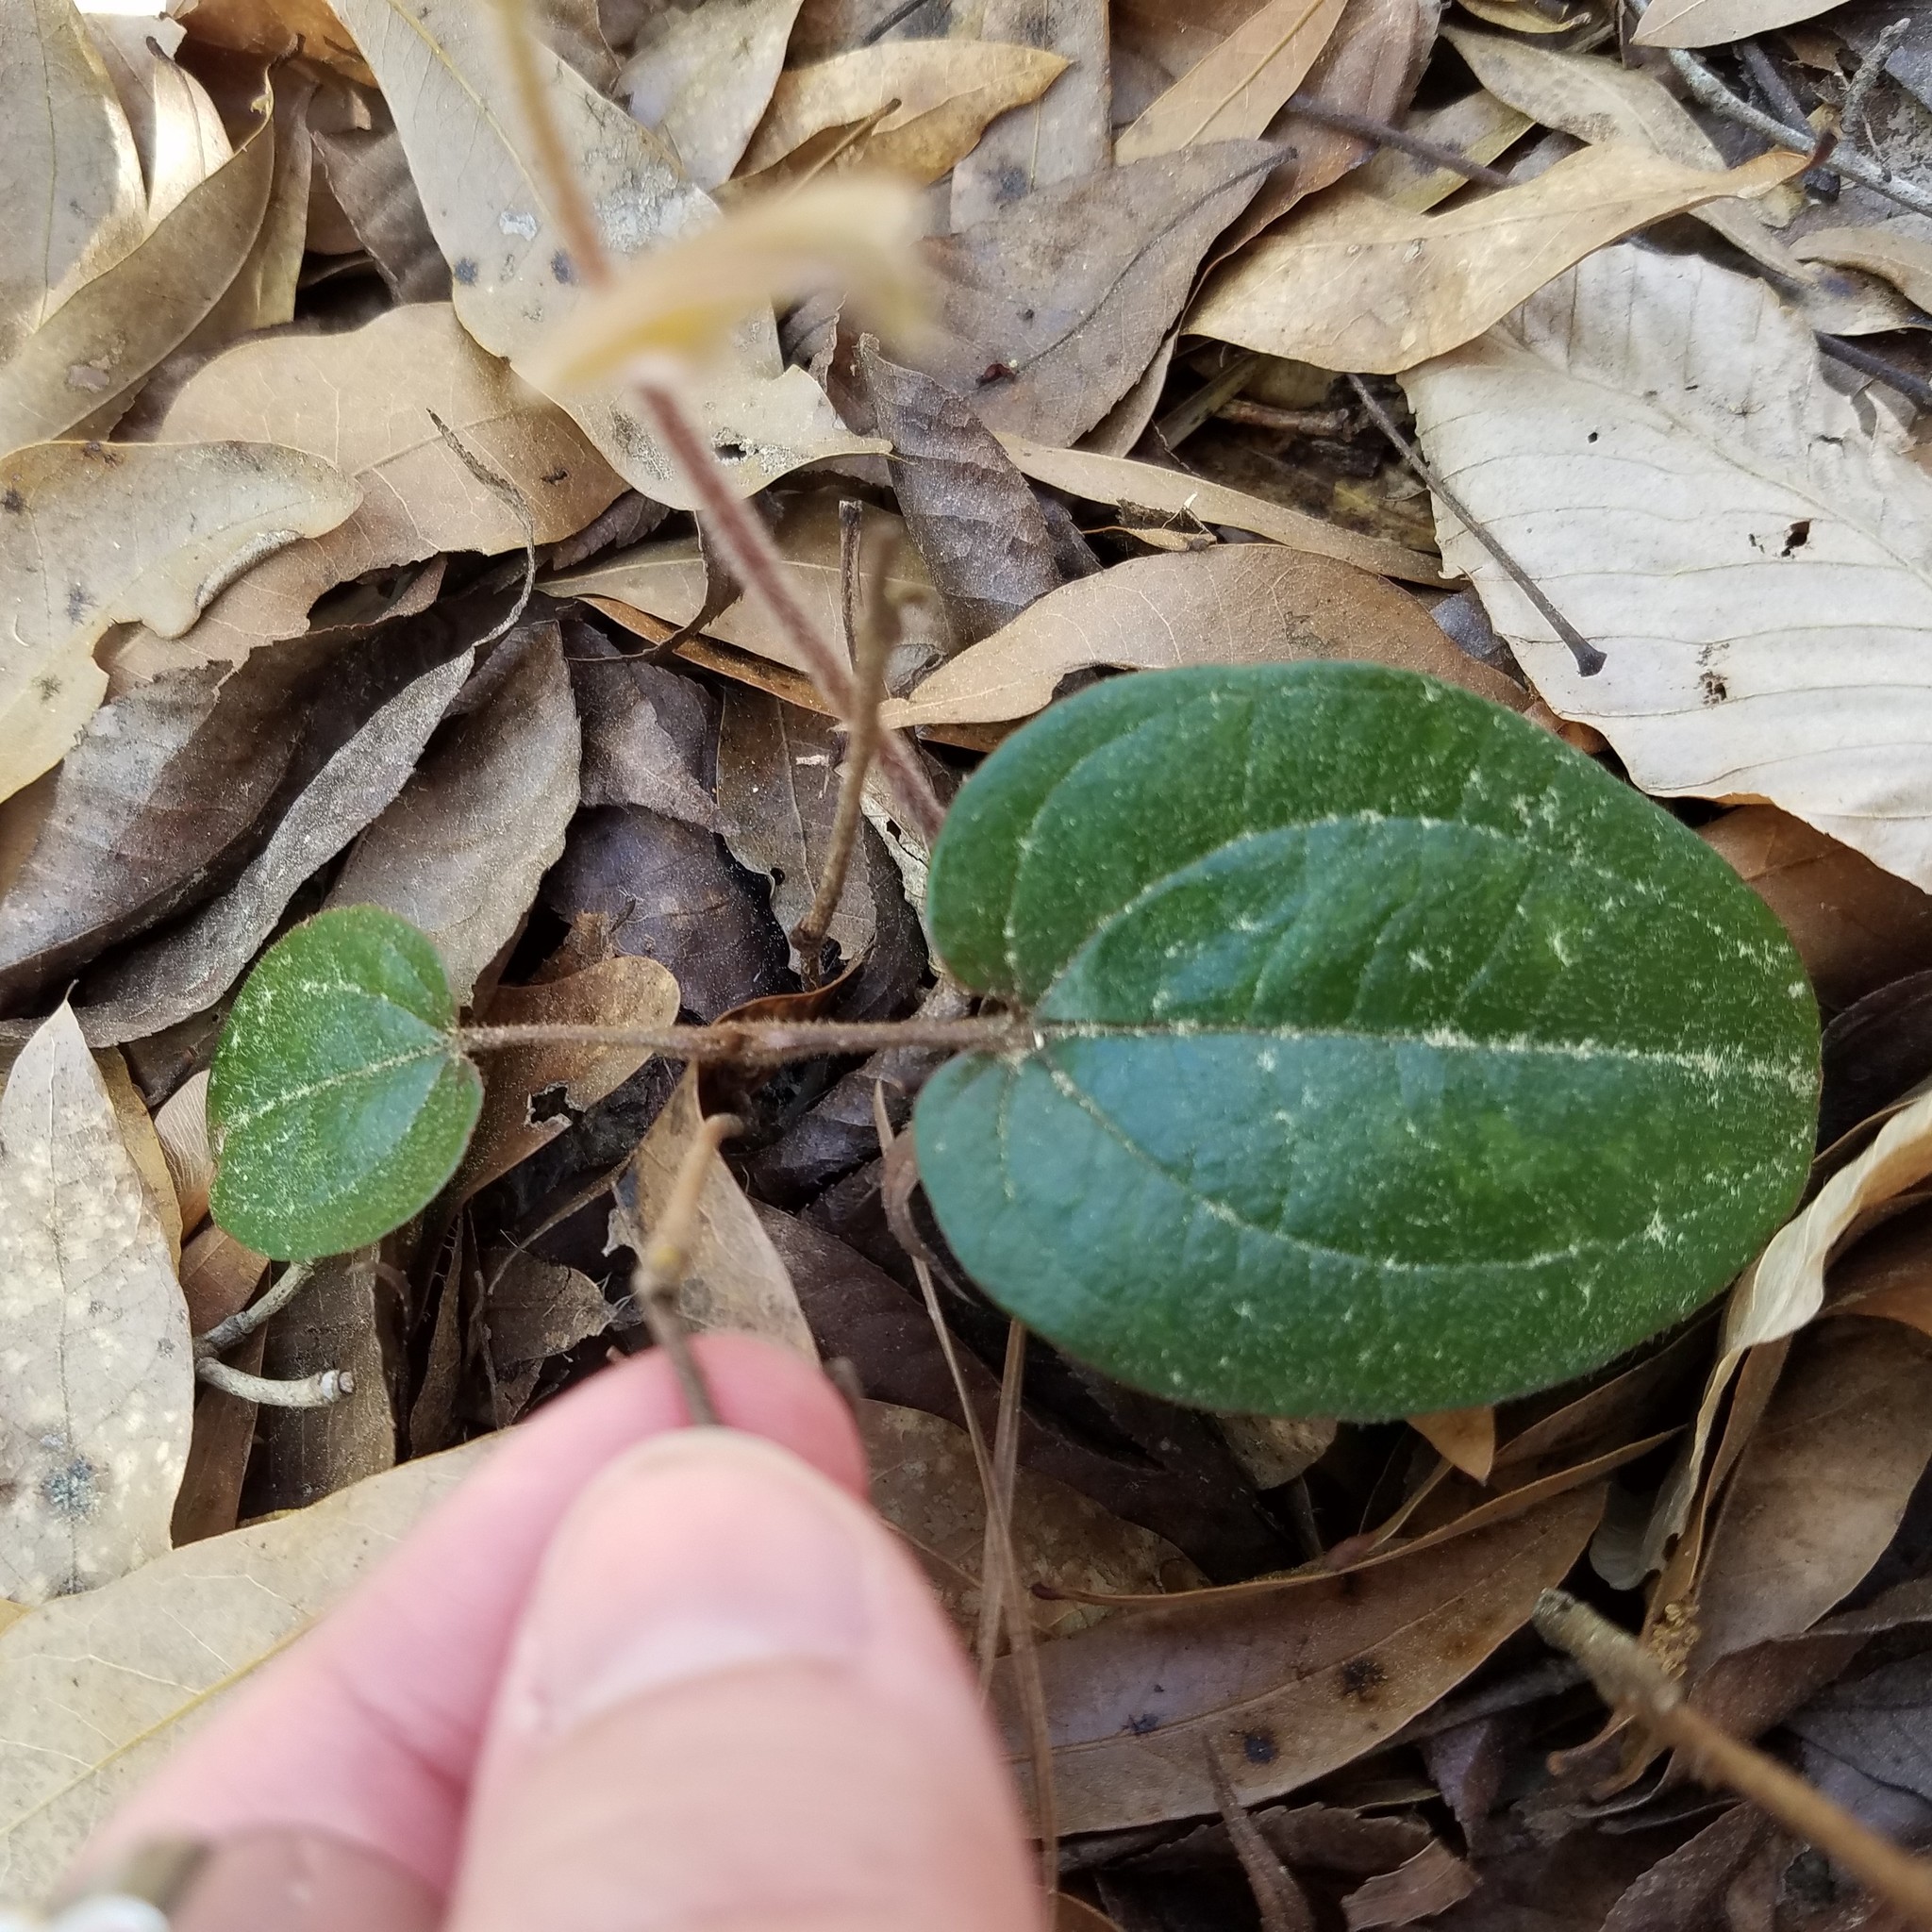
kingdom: Plantae
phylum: Tracheophyta
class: Liliopsida
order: Liliales
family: Smilacaceae
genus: Smilax
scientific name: Smilax pumila
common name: Sarsaparilla-vine
